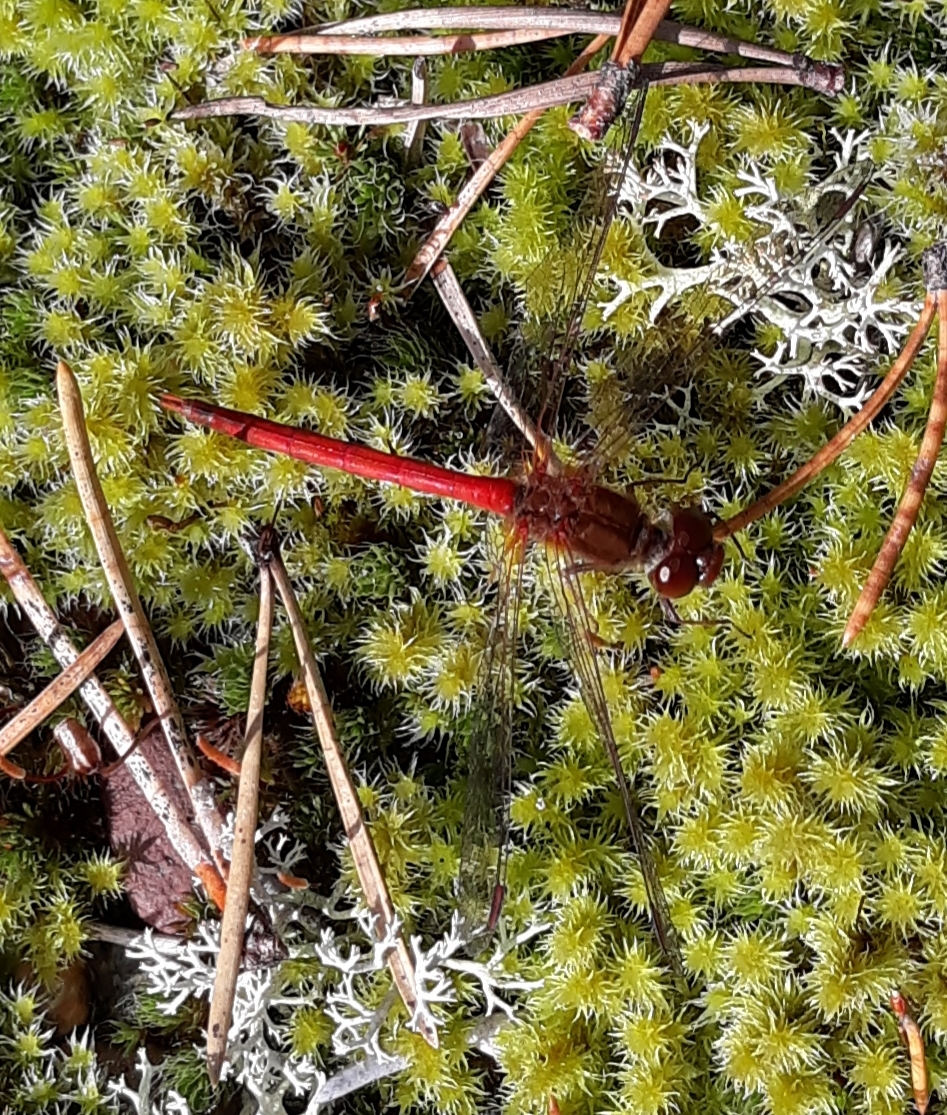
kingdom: Animalia
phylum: Arthropoda
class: Insecta
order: Odonata
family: Libellulidae
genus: Sympetrum
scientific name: Sympetrum vicinum
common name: Autumn meadowhawk
